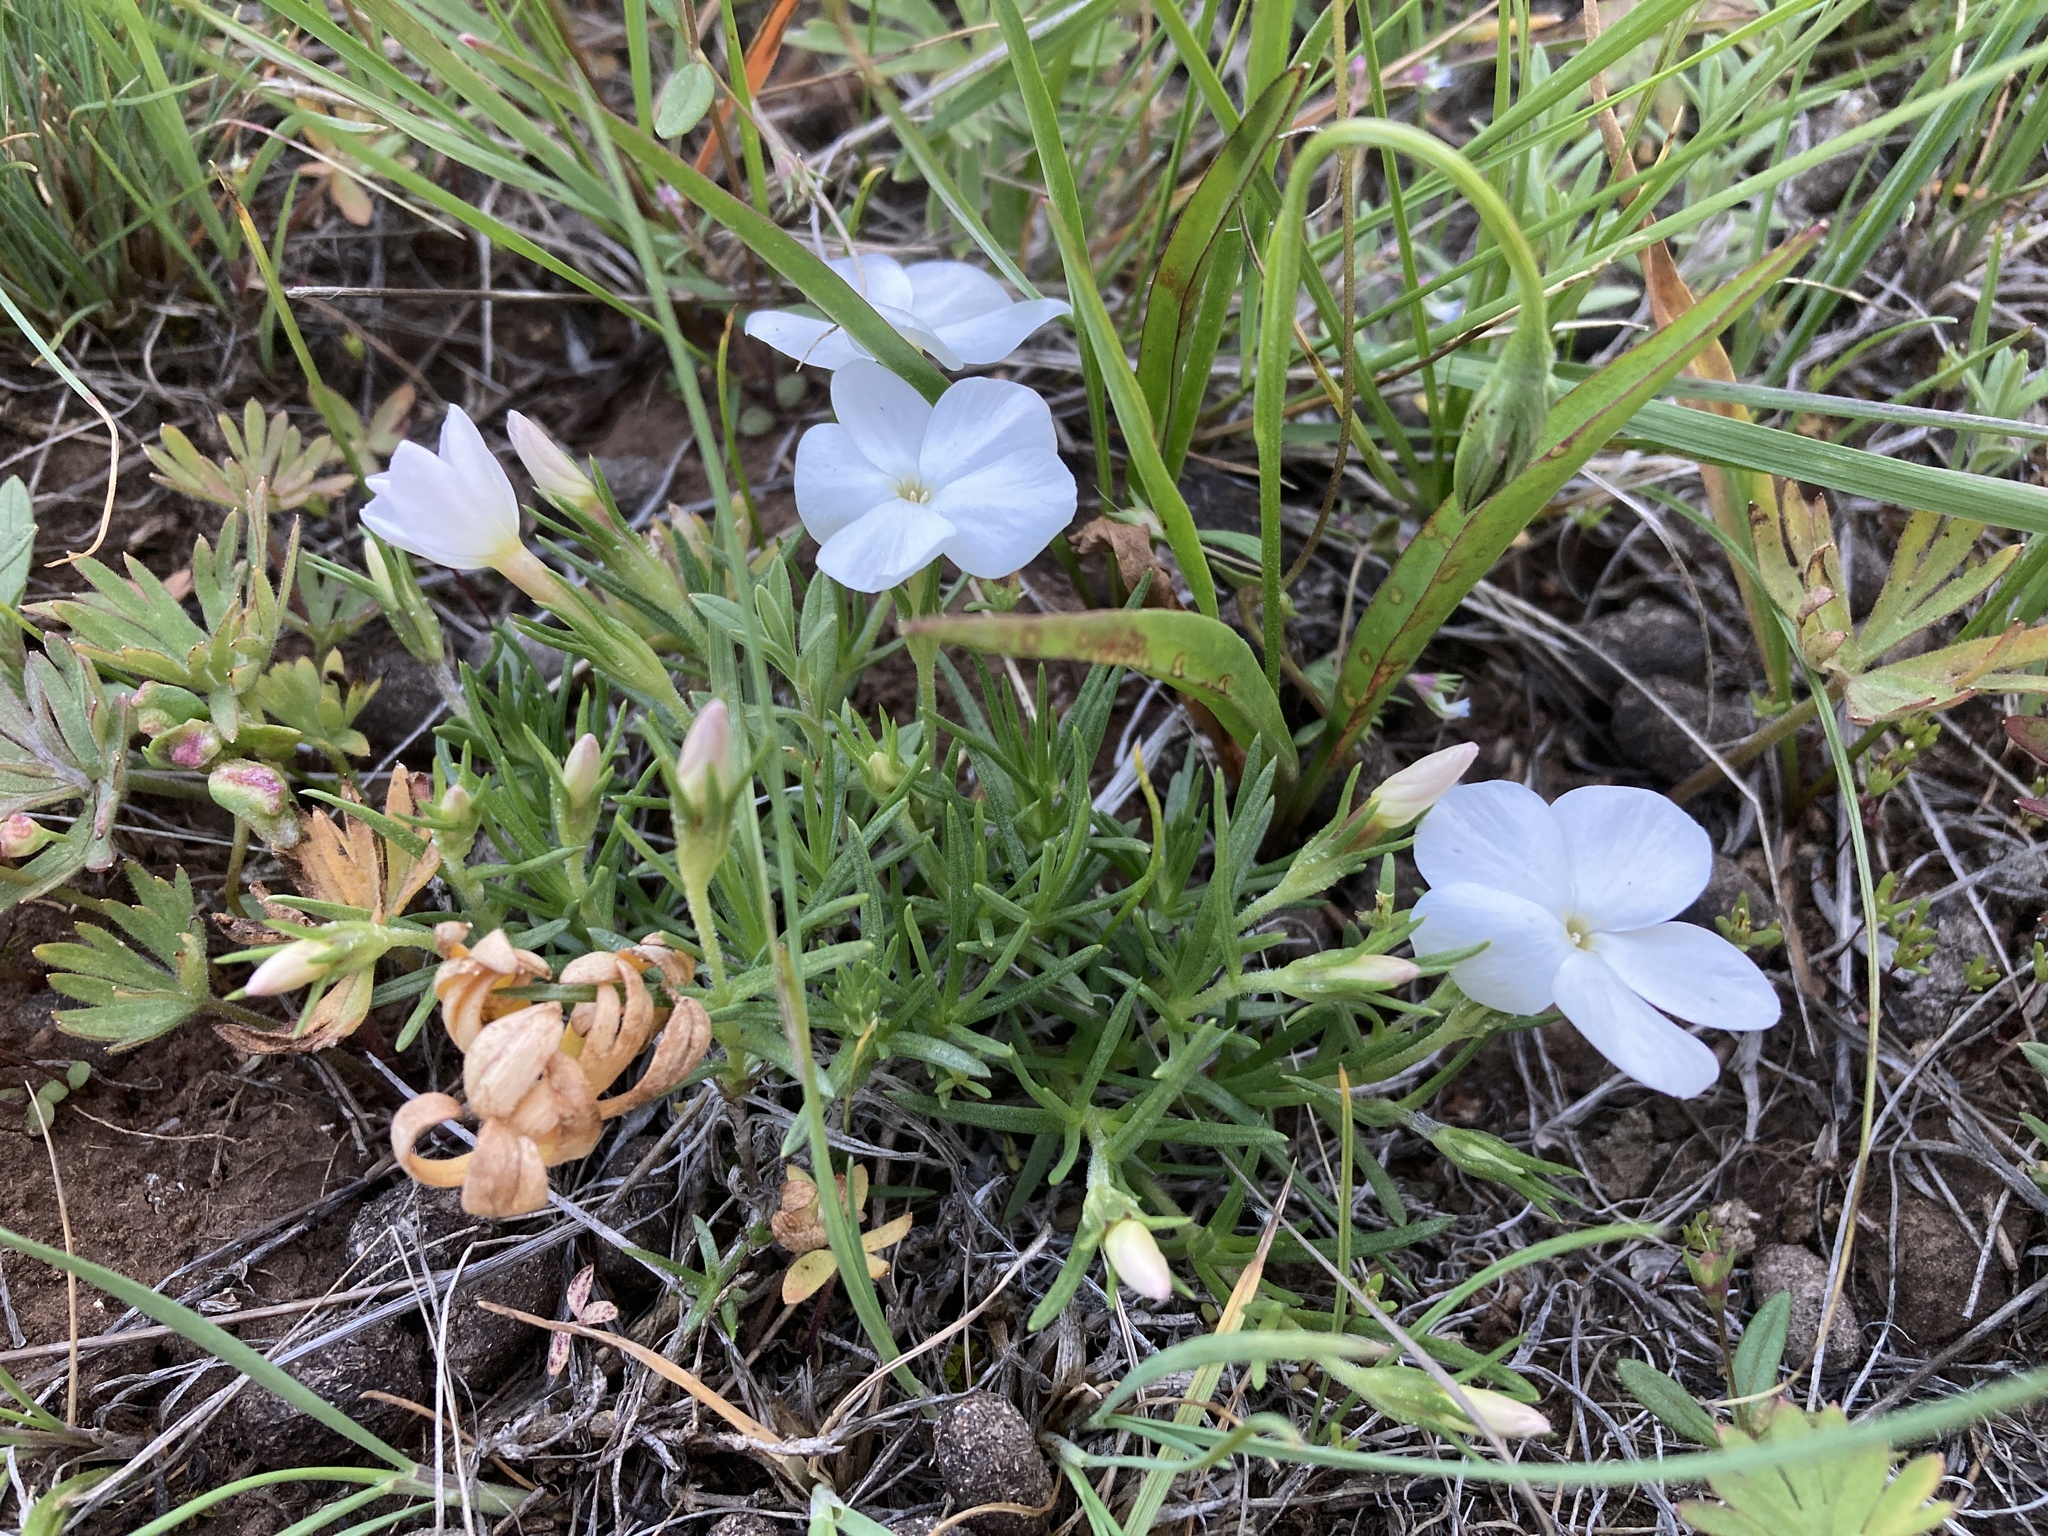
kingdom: Plantae
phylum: Tracheophyta
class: Magnoliopsida
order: Ericales
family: Polemoniaceae
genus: Phlox
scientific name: Phlox multiflora
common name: Rocky mountain phlox
